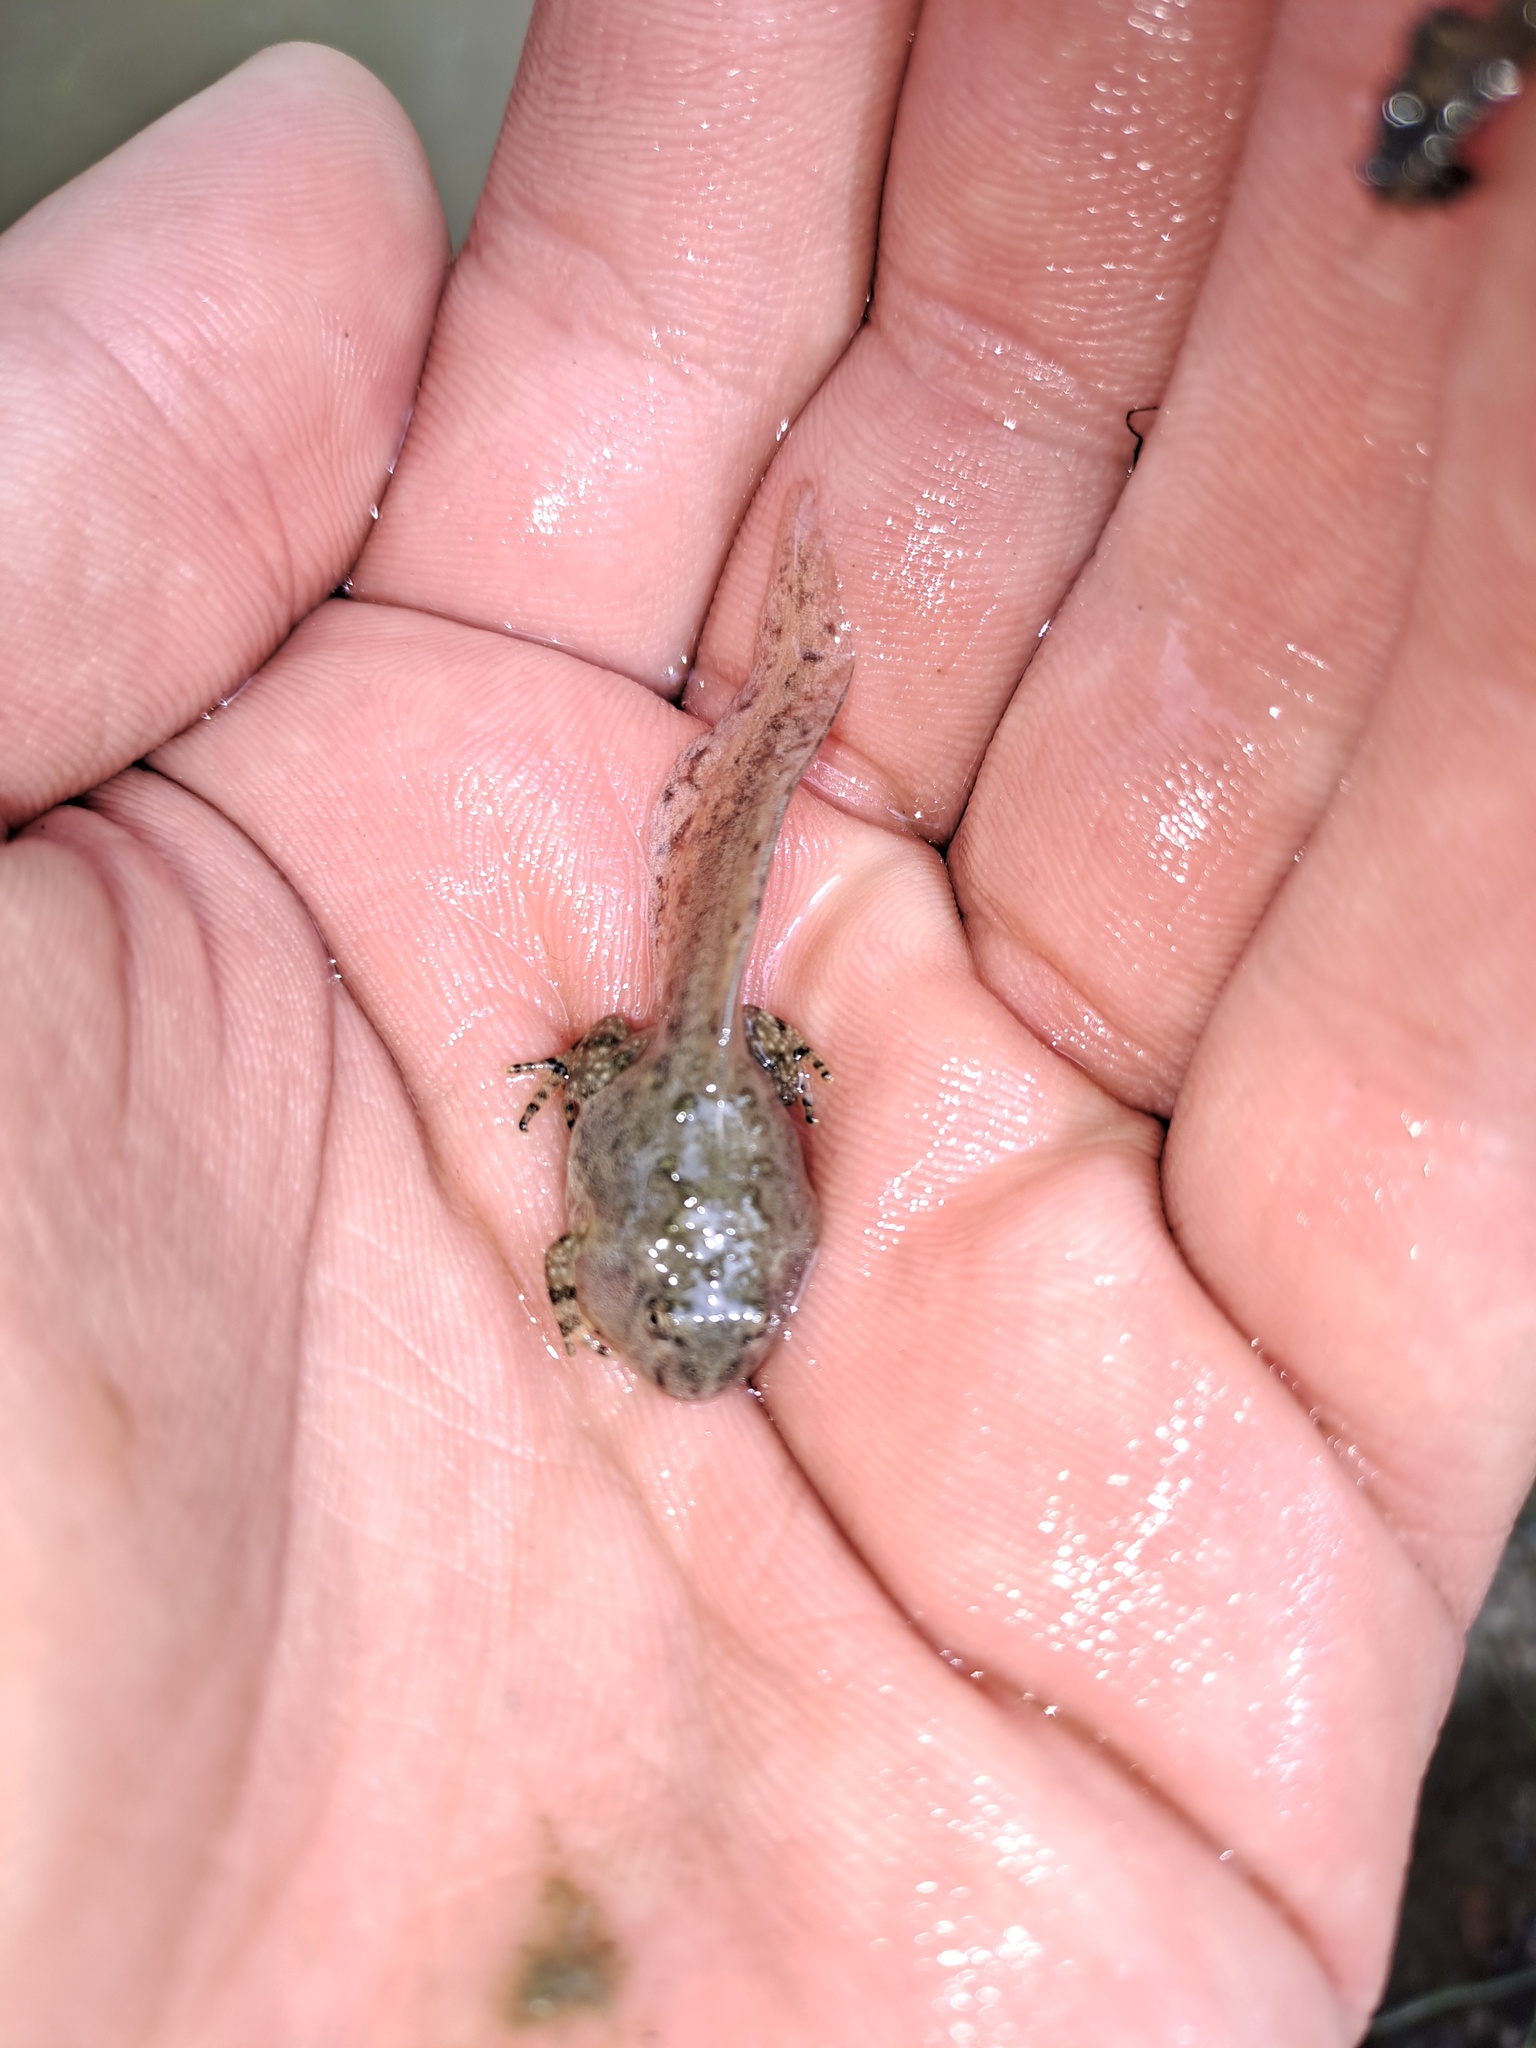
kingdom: Animalia
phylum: Chordata
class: Amphibia
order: Anura
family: Bombinatoridae
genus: Bombina
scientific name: Bombina variegata
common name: Yellow-bellied toad
